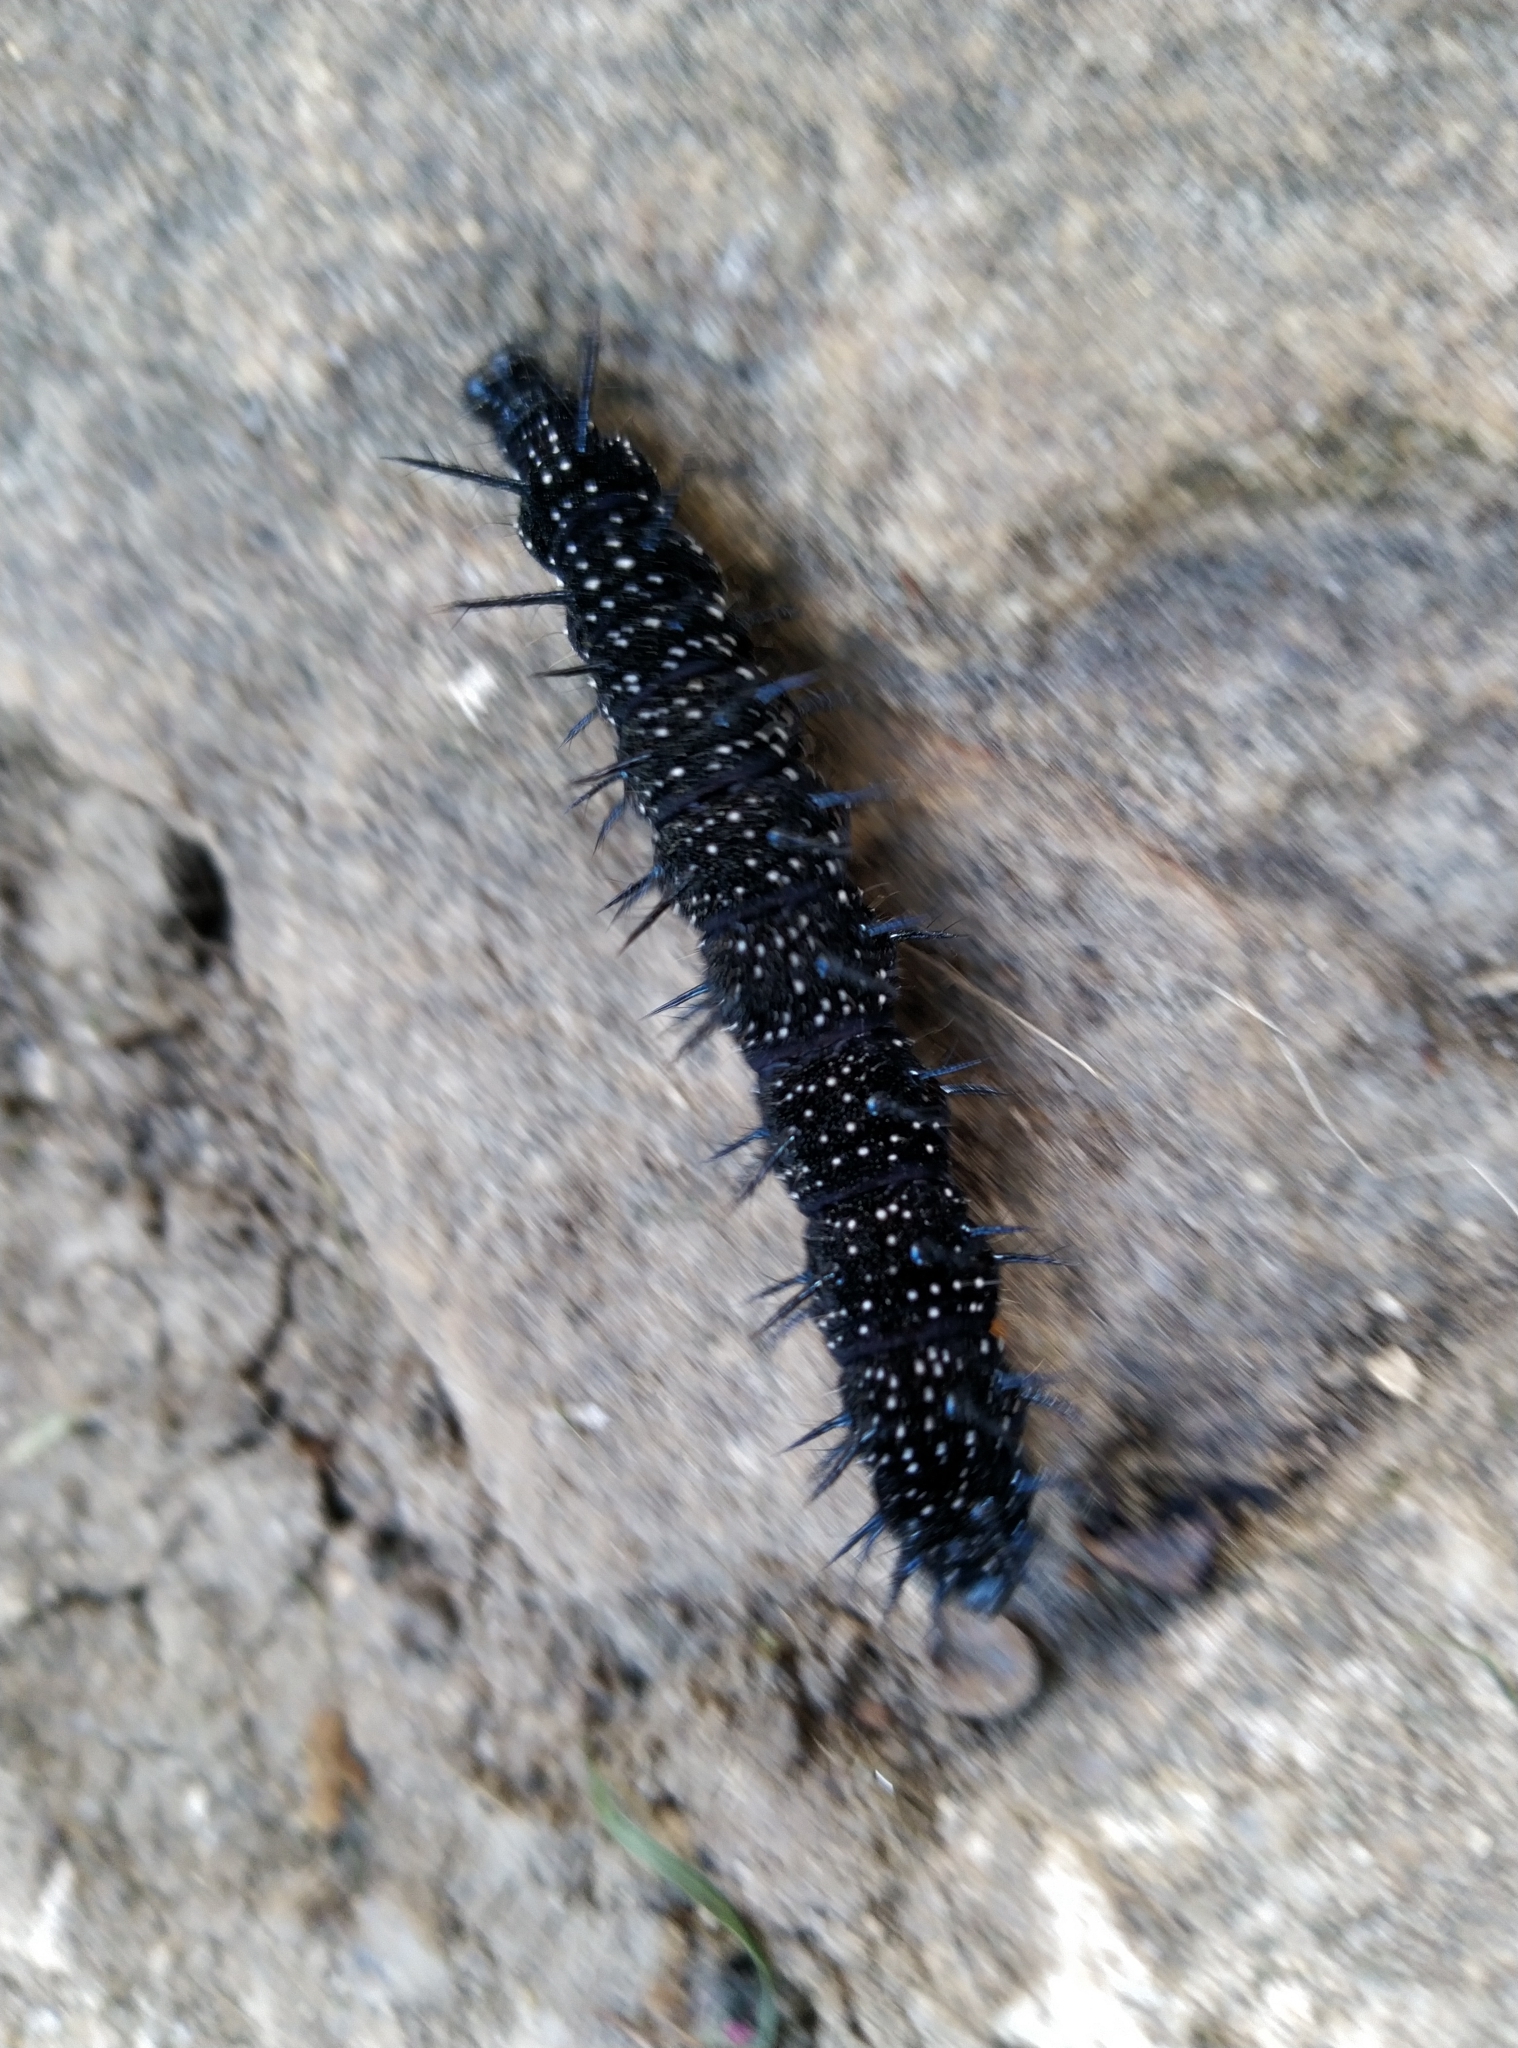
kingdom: Animalia
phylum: Arthropoda
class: Insecta
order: Lepidoptera
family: Nymphalidae
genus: Aglais
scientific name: Aglais io
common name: Peacock
